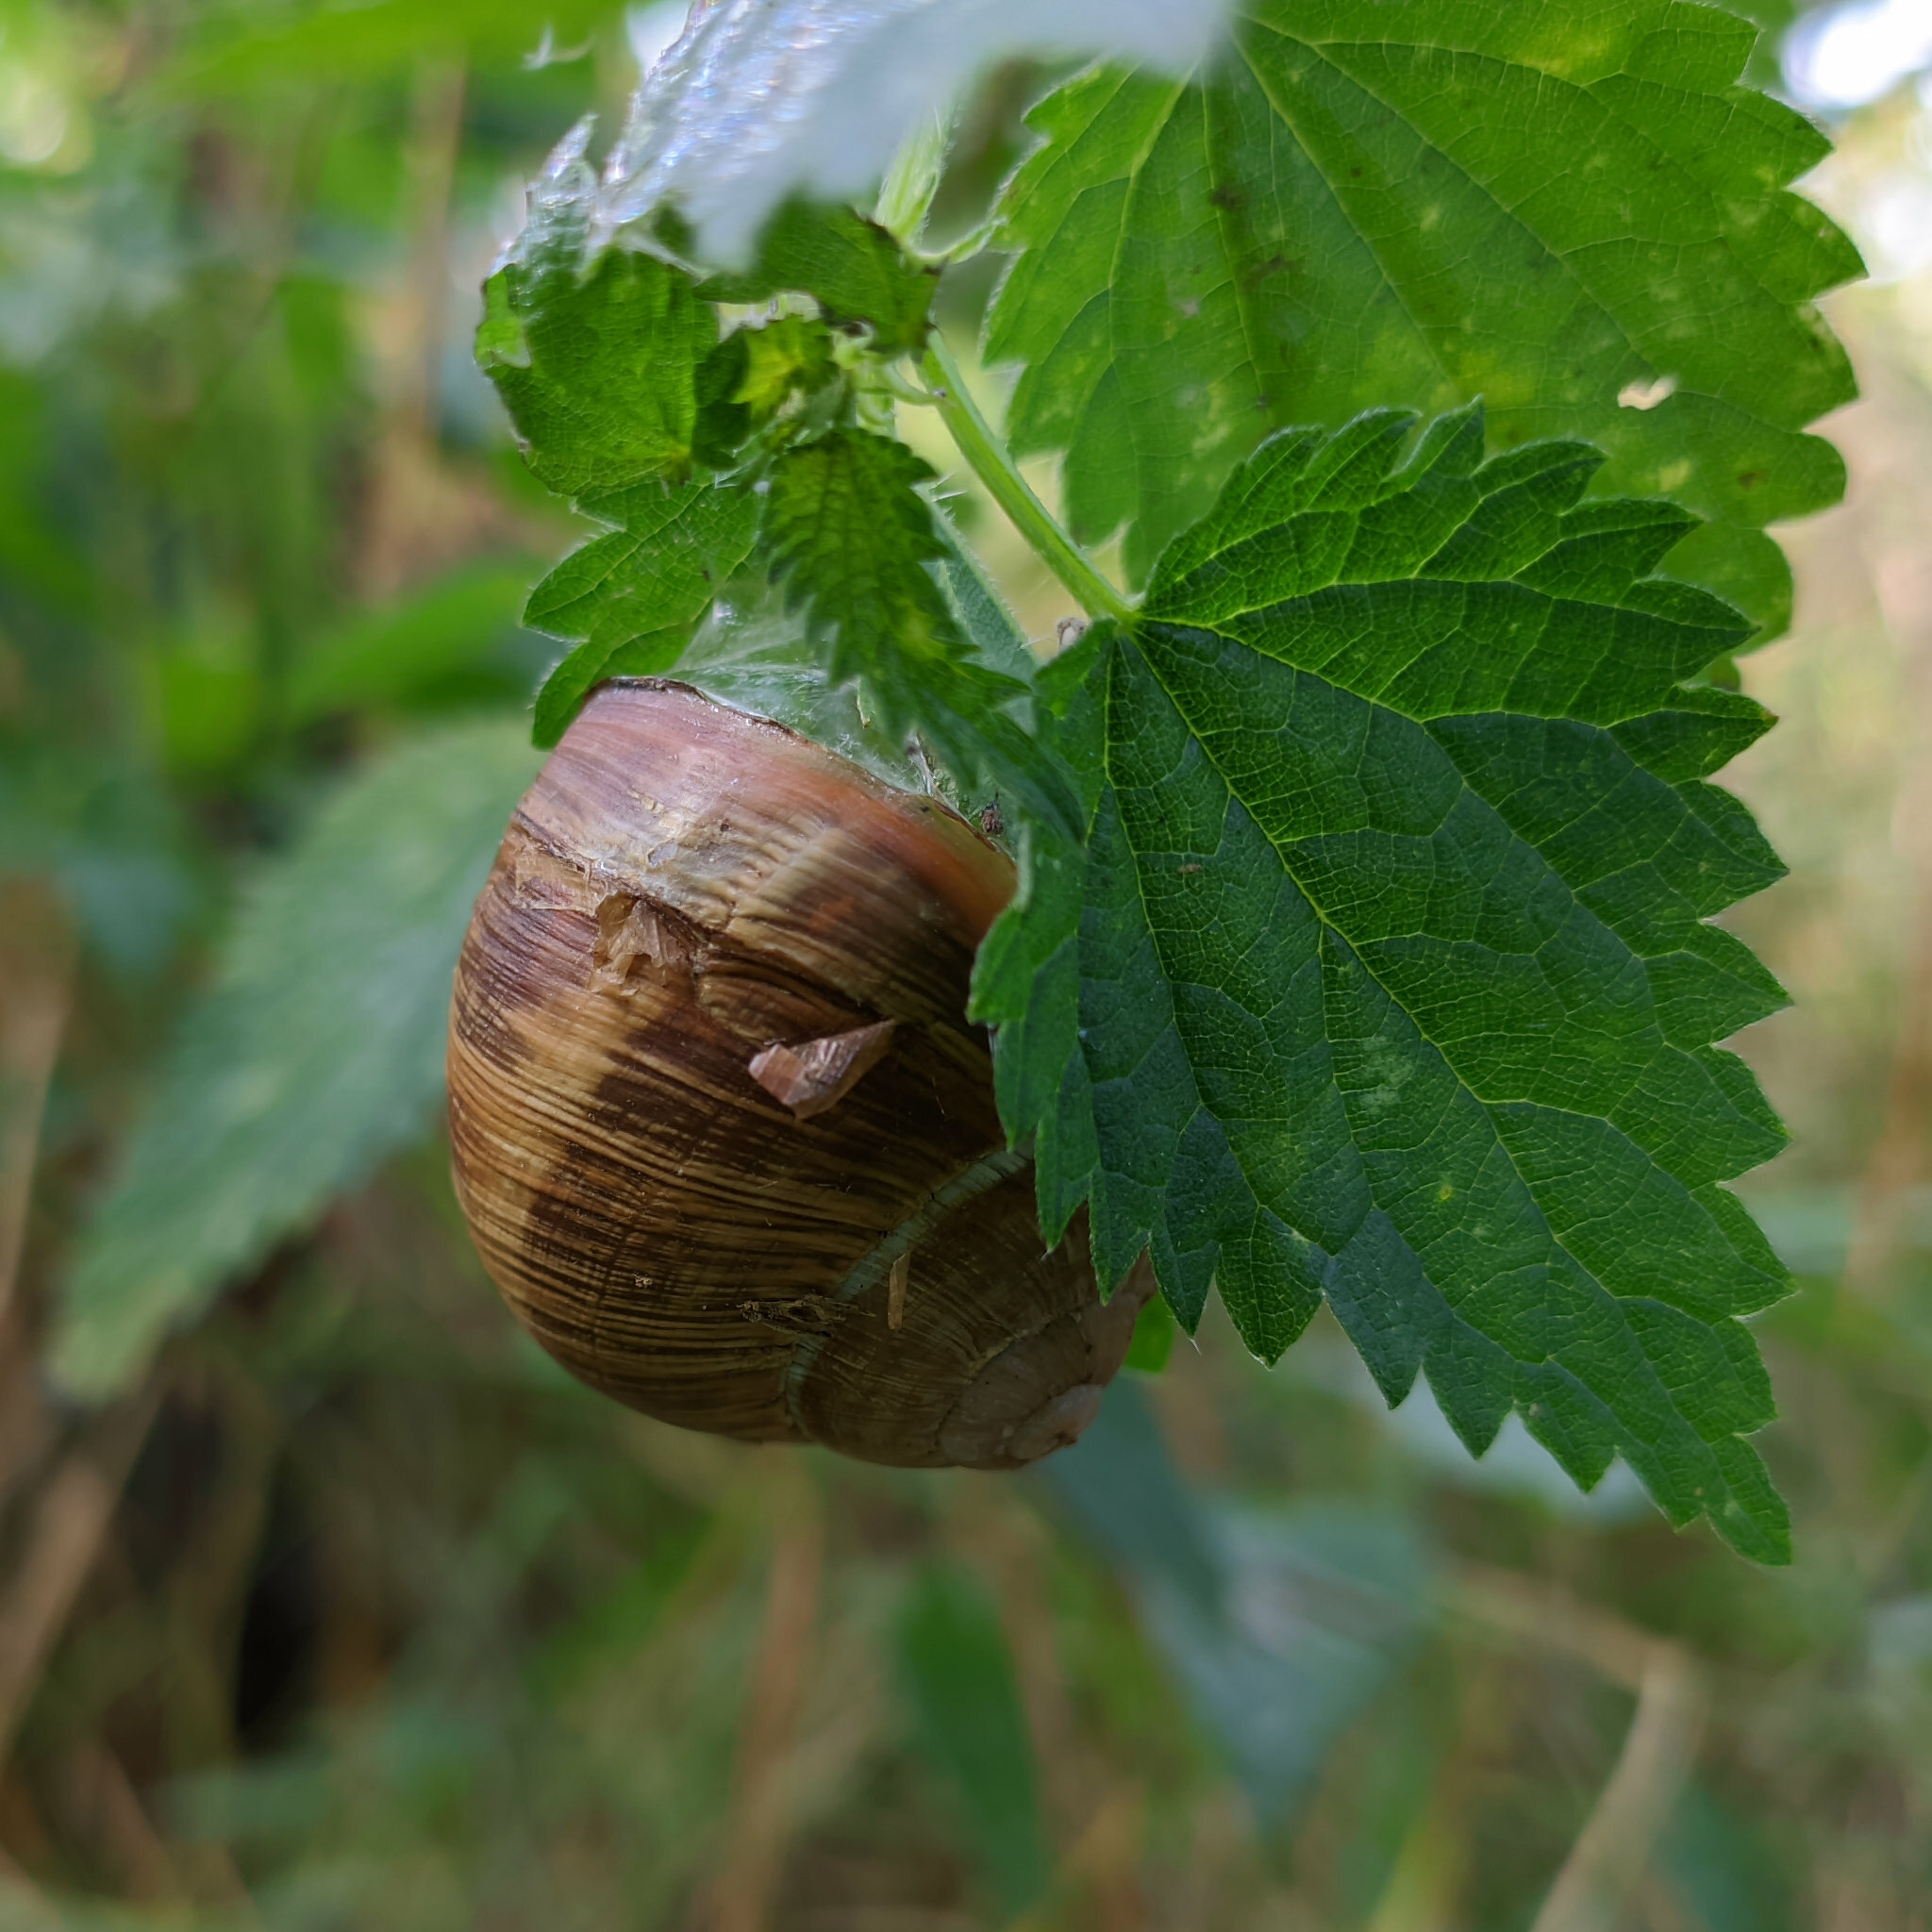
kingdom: Animalia
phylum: Mollusca
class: Gastropoda
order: Stylommatophora
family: Helicidae
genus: Helix
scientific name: Helix pomatia
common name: Roman snail
